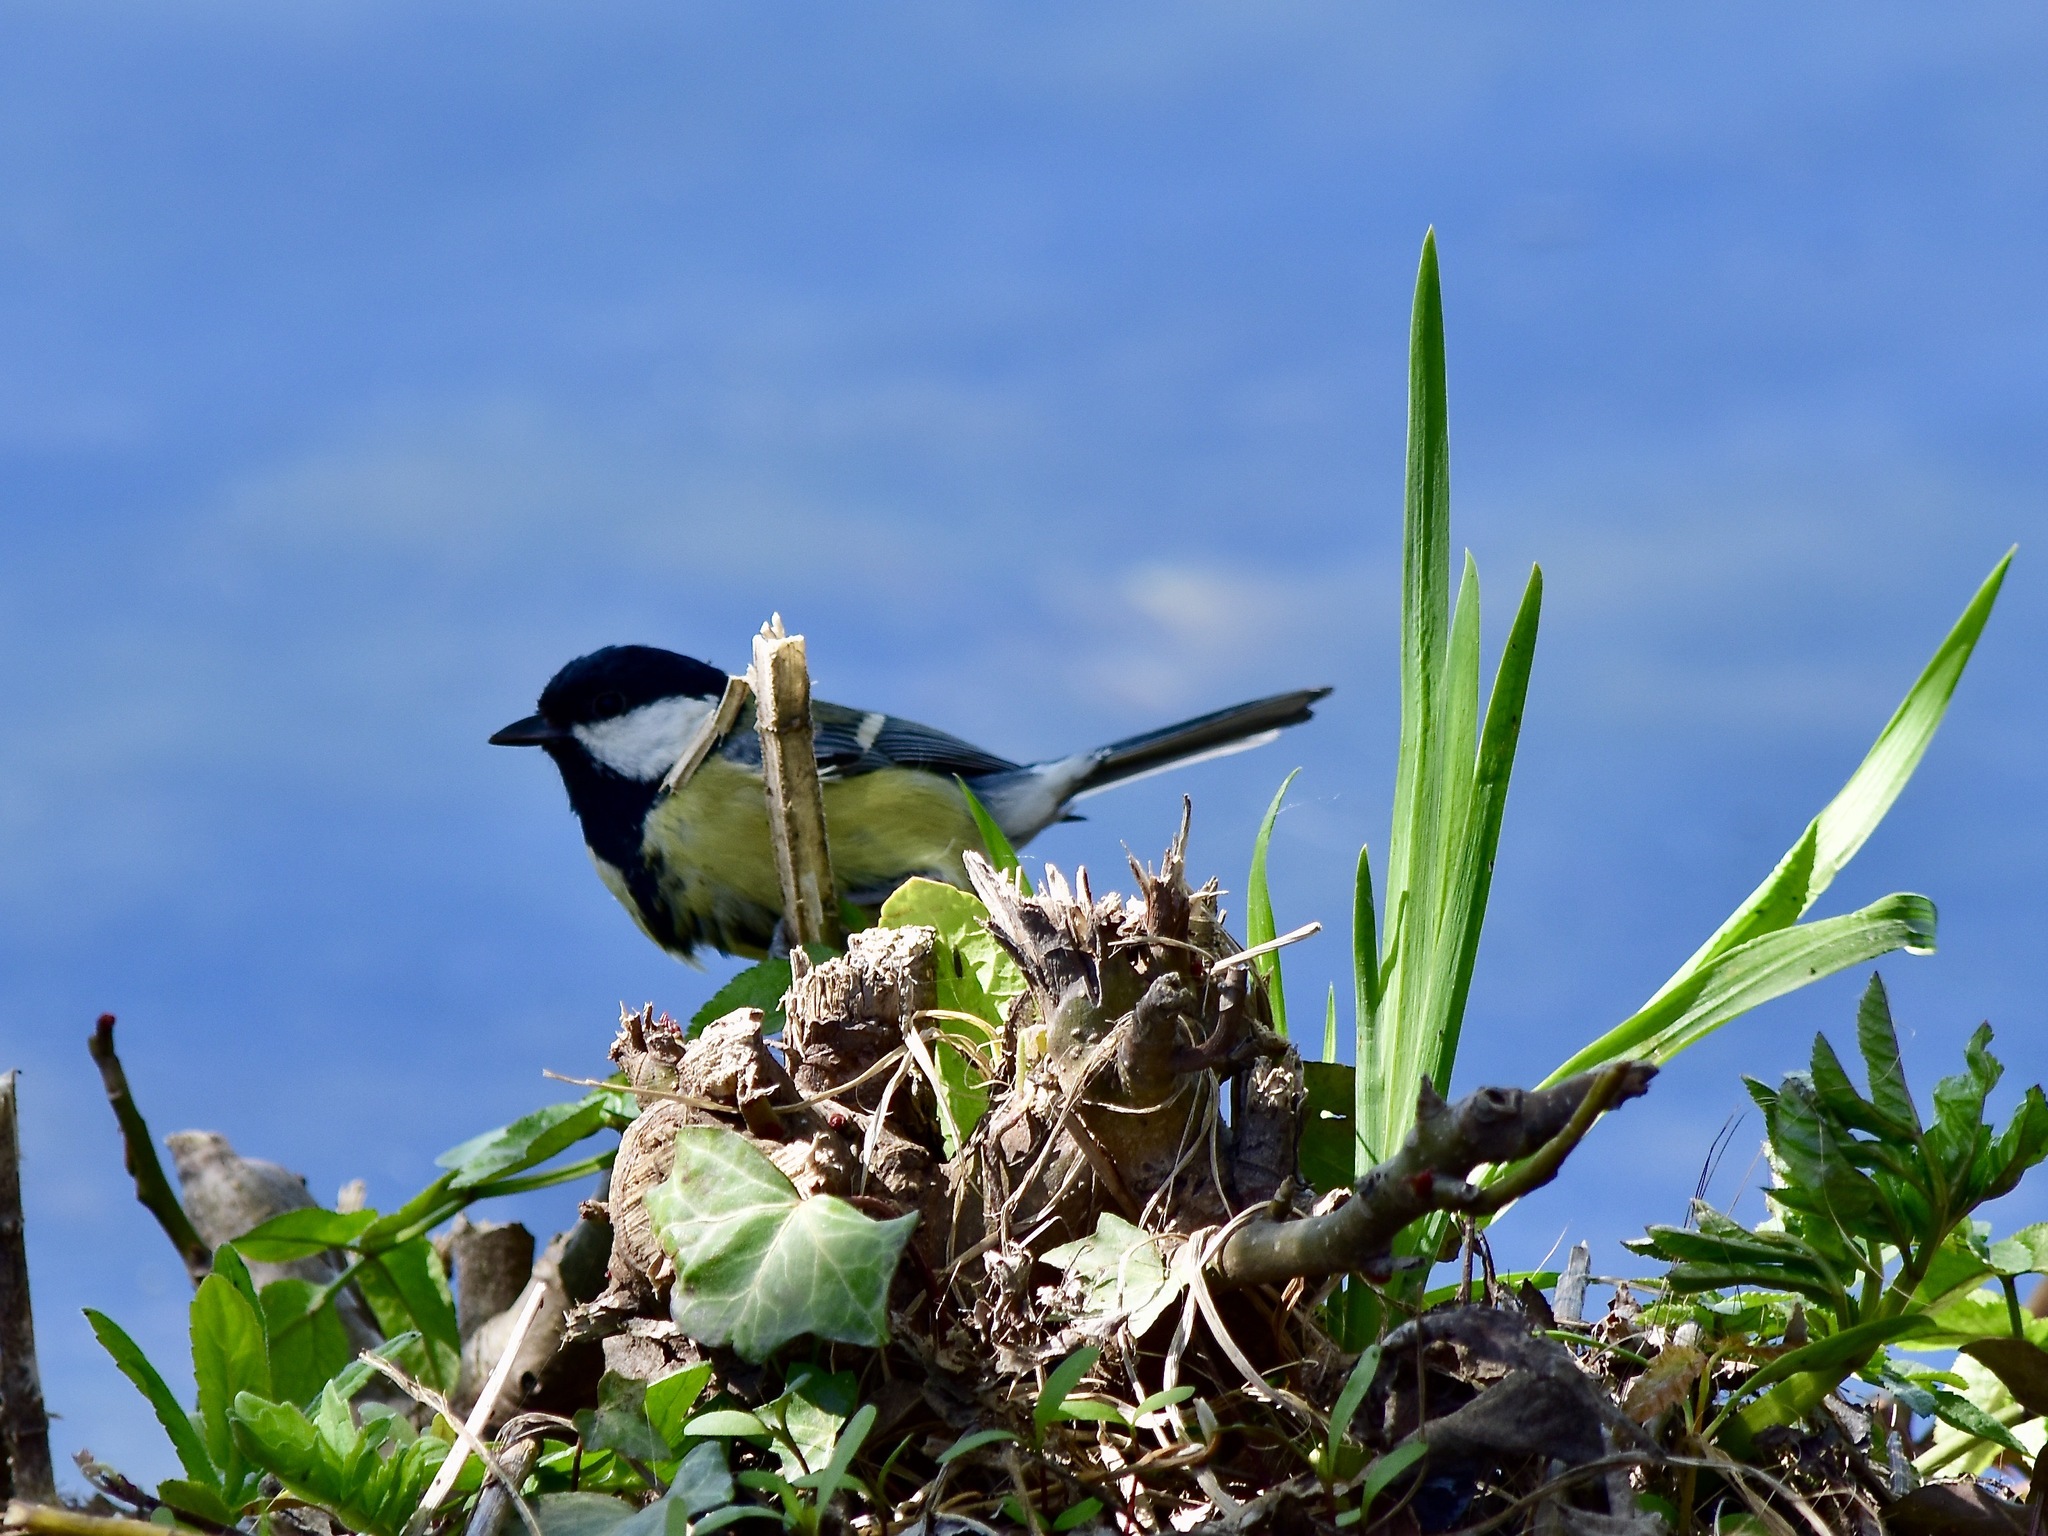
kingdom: Animalia
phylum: Chordata
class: Aves
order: Passeriformes
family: Paridae
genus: Parus
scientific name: Parus major
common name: Great tit
